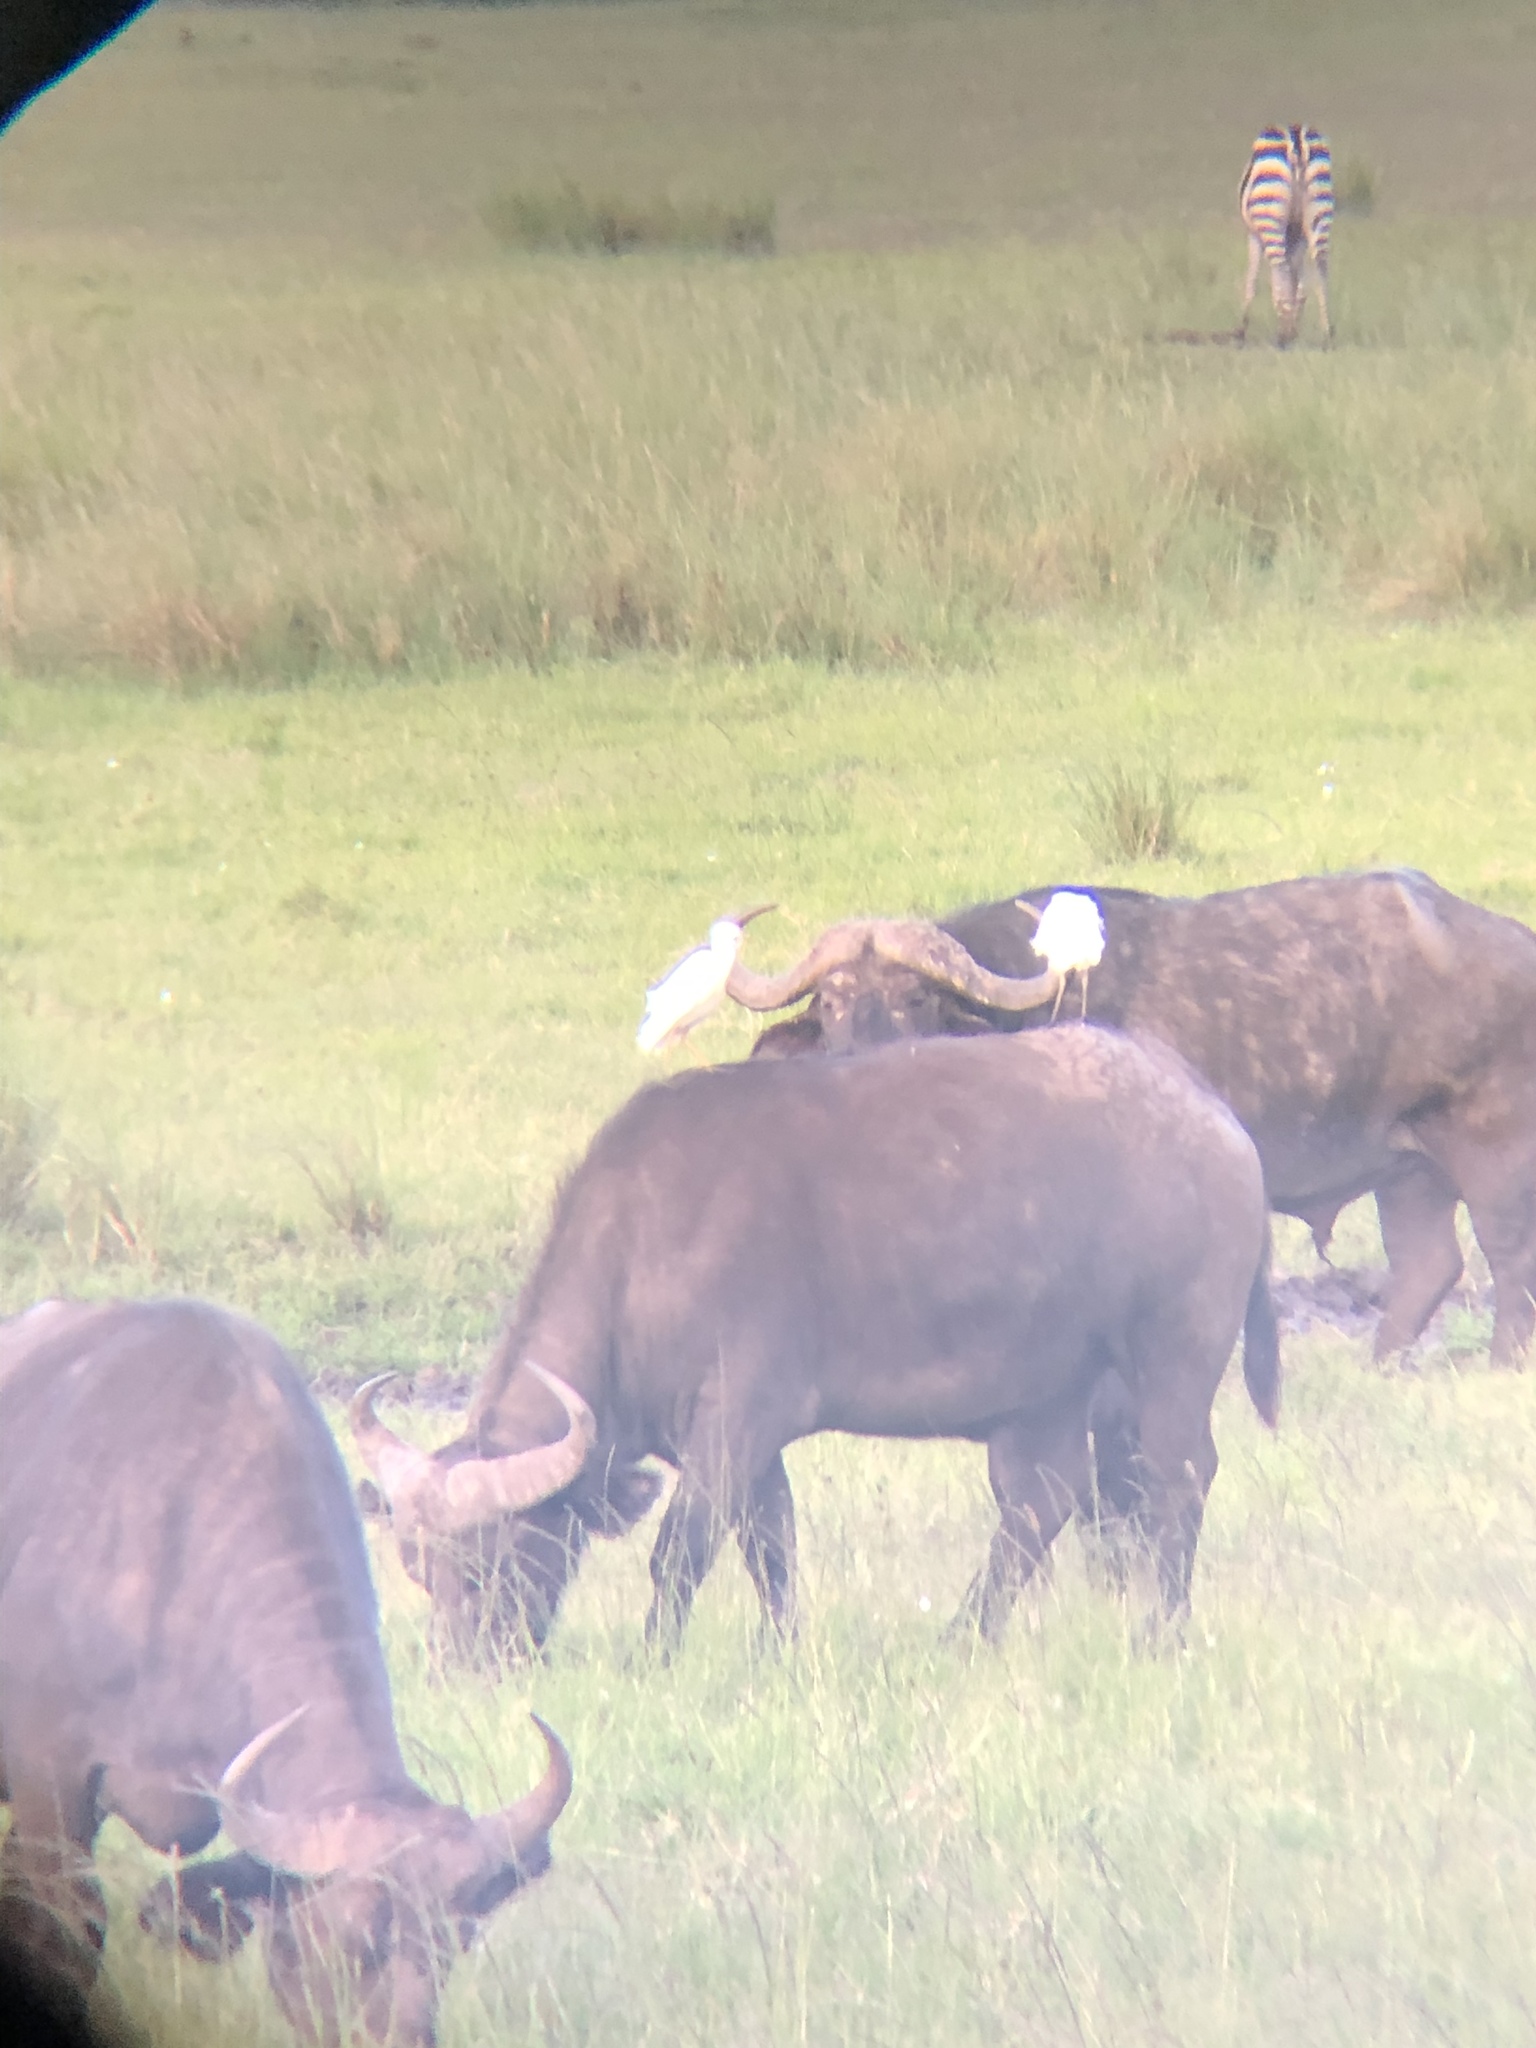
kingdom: Animalia
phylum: Chordata
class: Aves
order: Pelecaniformes
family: Ardeidae
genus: Bubulcus
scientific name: Bubulcus ibis
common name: Cattle egret
